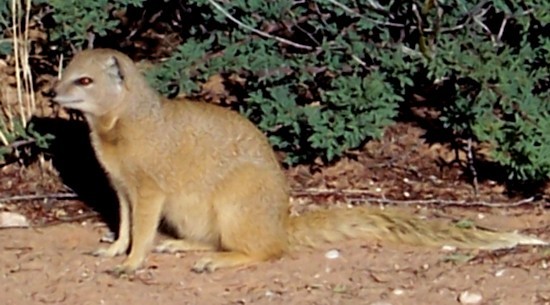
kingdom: Animalia
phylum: Chordata
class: Mammalia
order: Carnivora
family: Herpestidae
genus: Cynictis
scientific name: Cynictis penicillata
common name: Yellow mongoose
